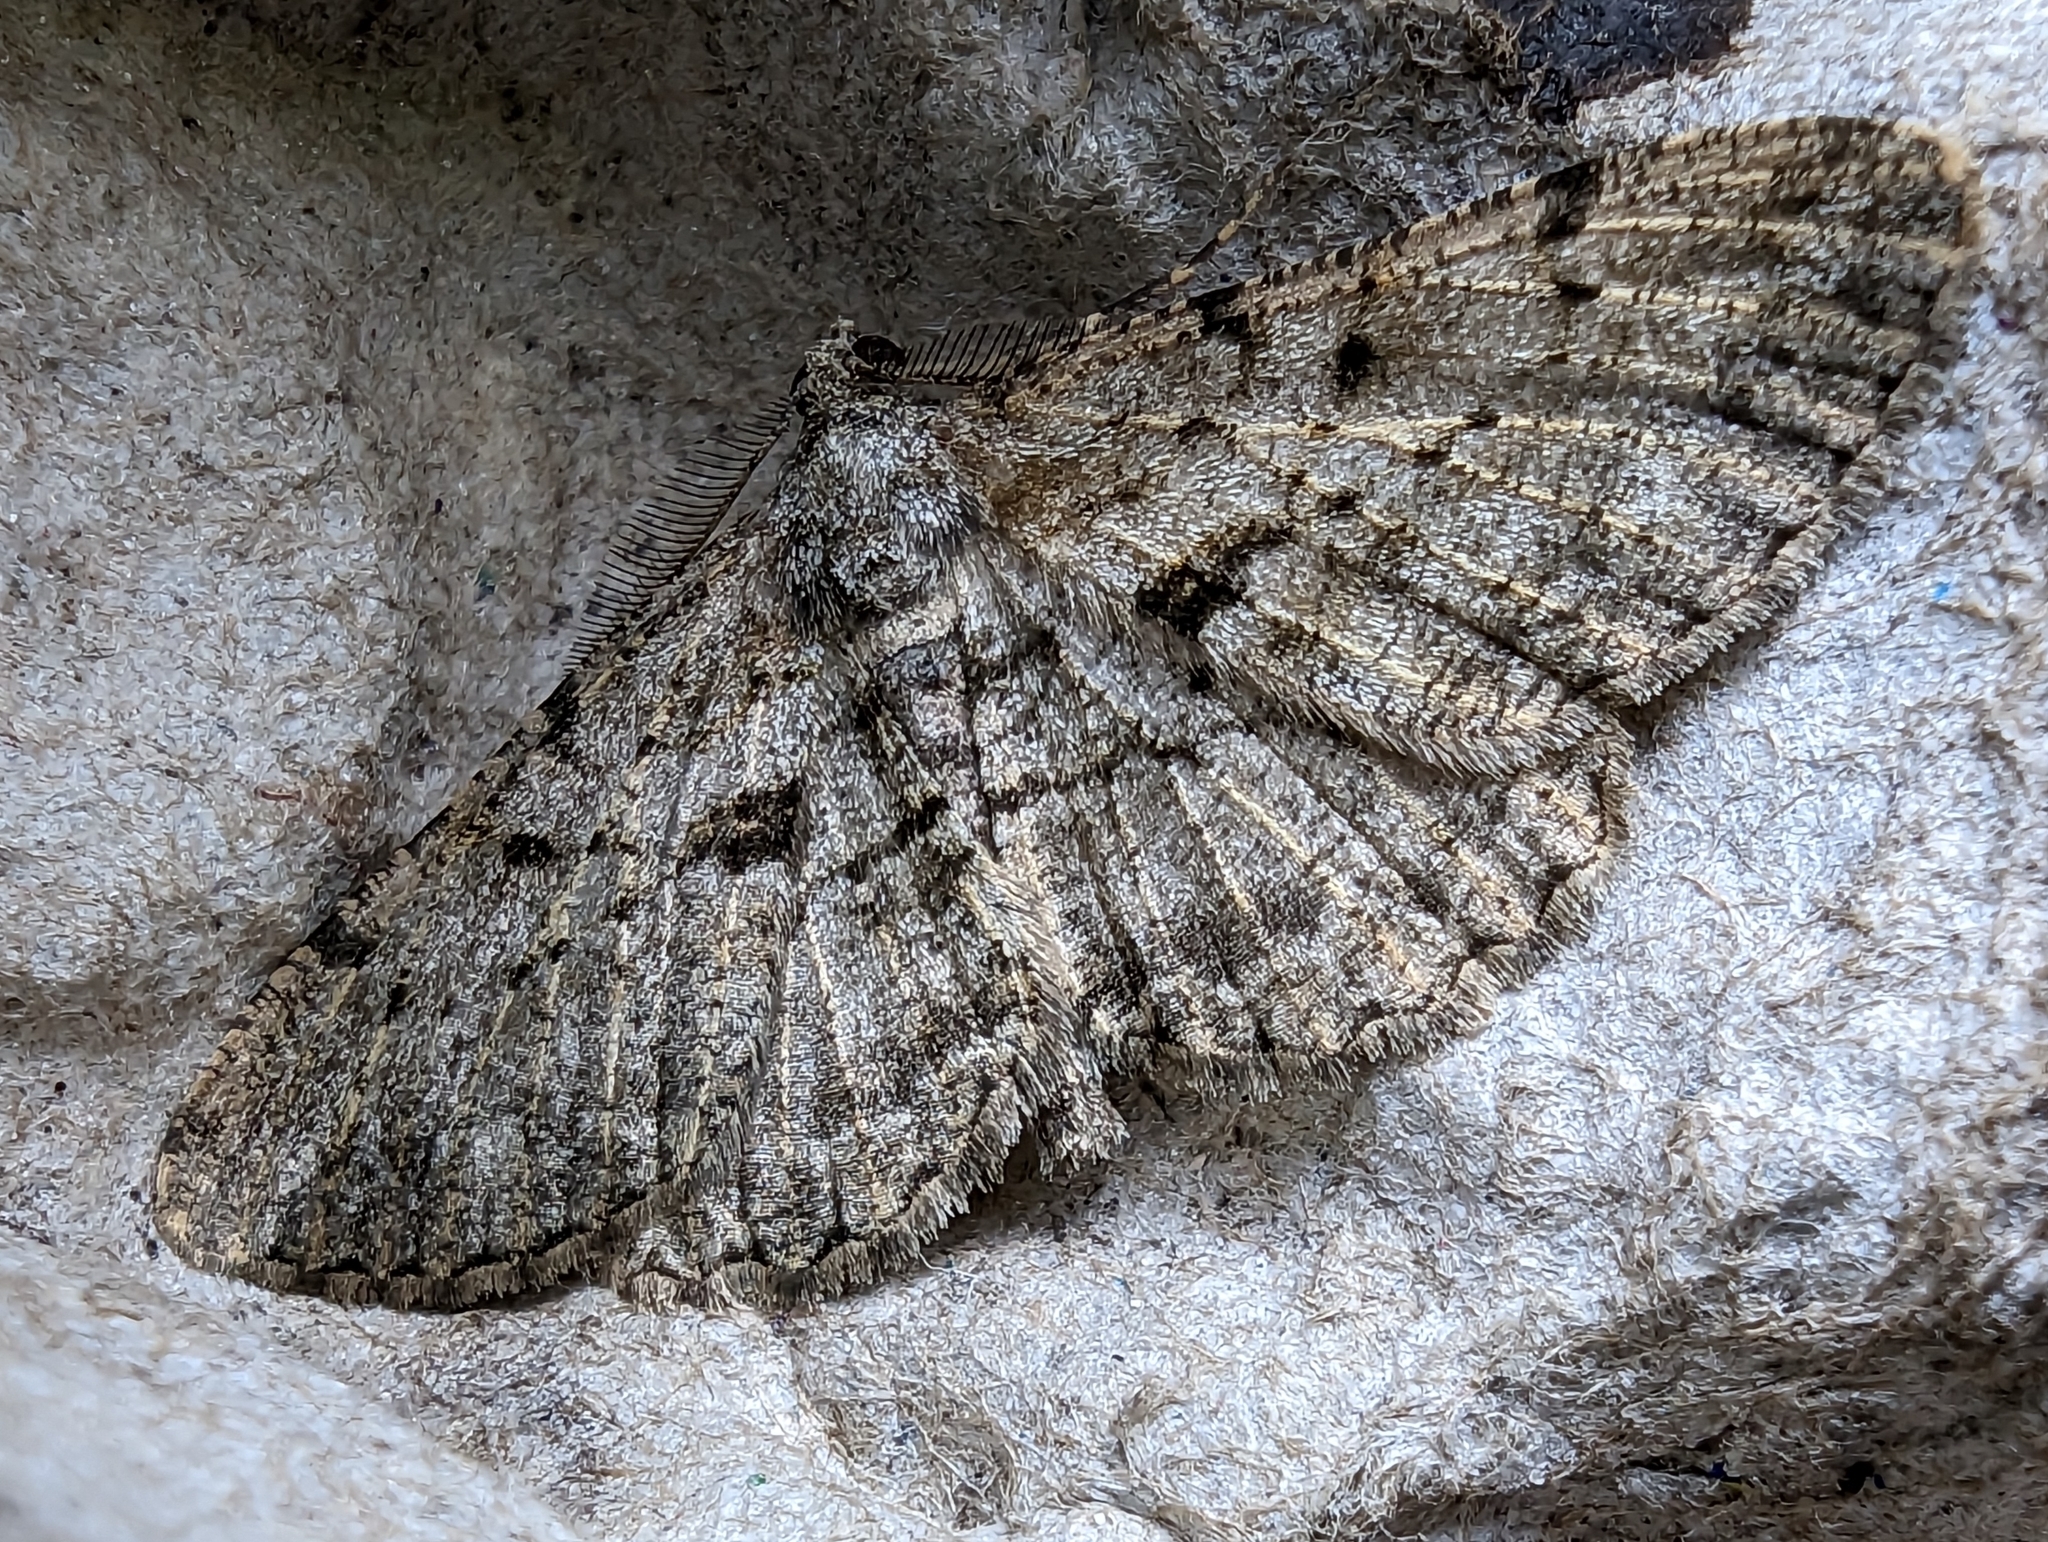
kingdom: Animalia
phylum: Arthropoda
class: Insecta
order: Lepidoptera
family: Geometridae
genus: Peribatodes
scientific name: Peribatodes rhomboidaria
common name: Willow beauty
